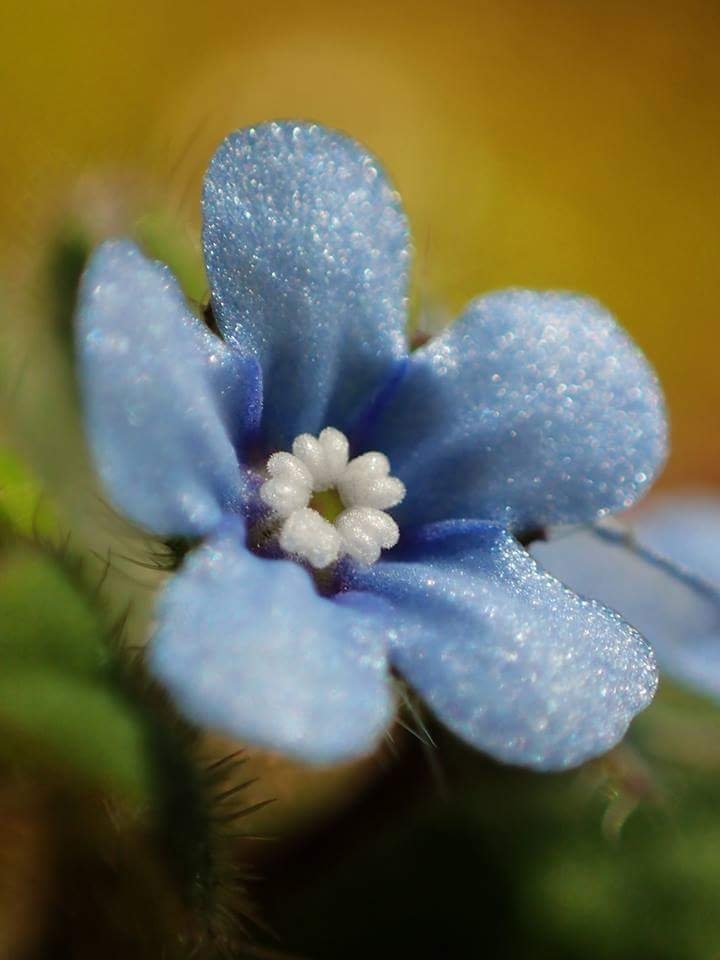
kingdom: Plantae
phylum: Tracheophyta
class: Magnoliopsida
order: Boraginales
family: Boraginaceae
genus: Thyrocarpus
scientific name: Thyrocarpus sampsonii
